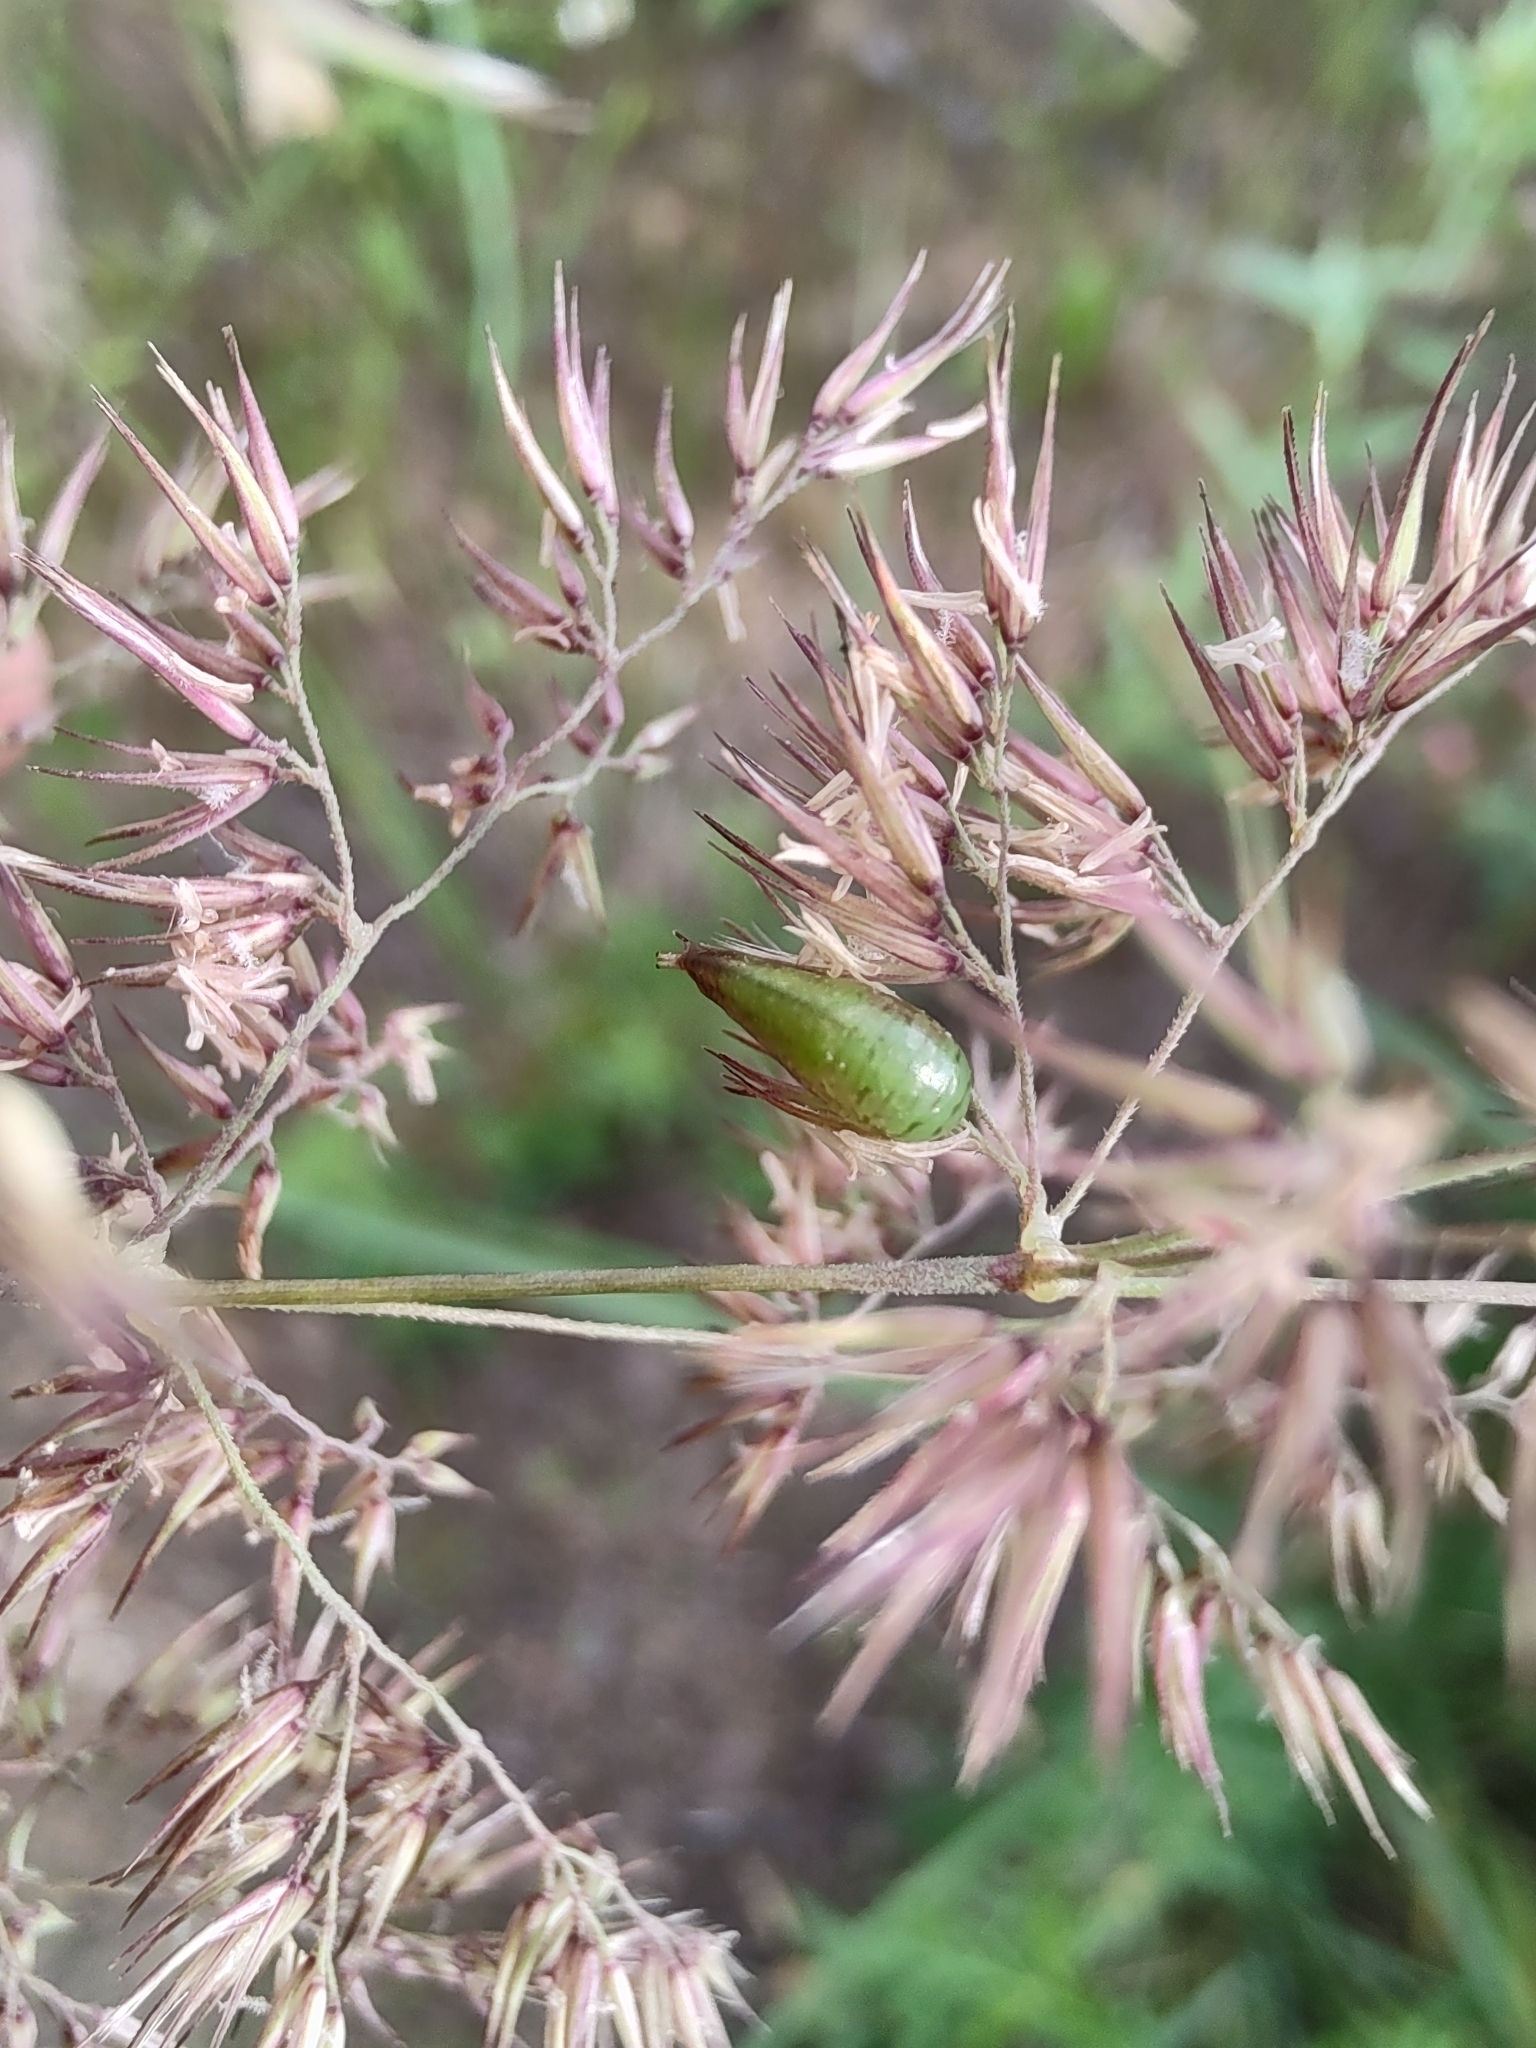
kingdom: Plantae
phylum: Tracheophyta
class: Liliopsida
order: Poales
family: Poaceae
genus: Calamagrostis
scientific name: Calamagrostis epigejos
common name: Wood small-reed
